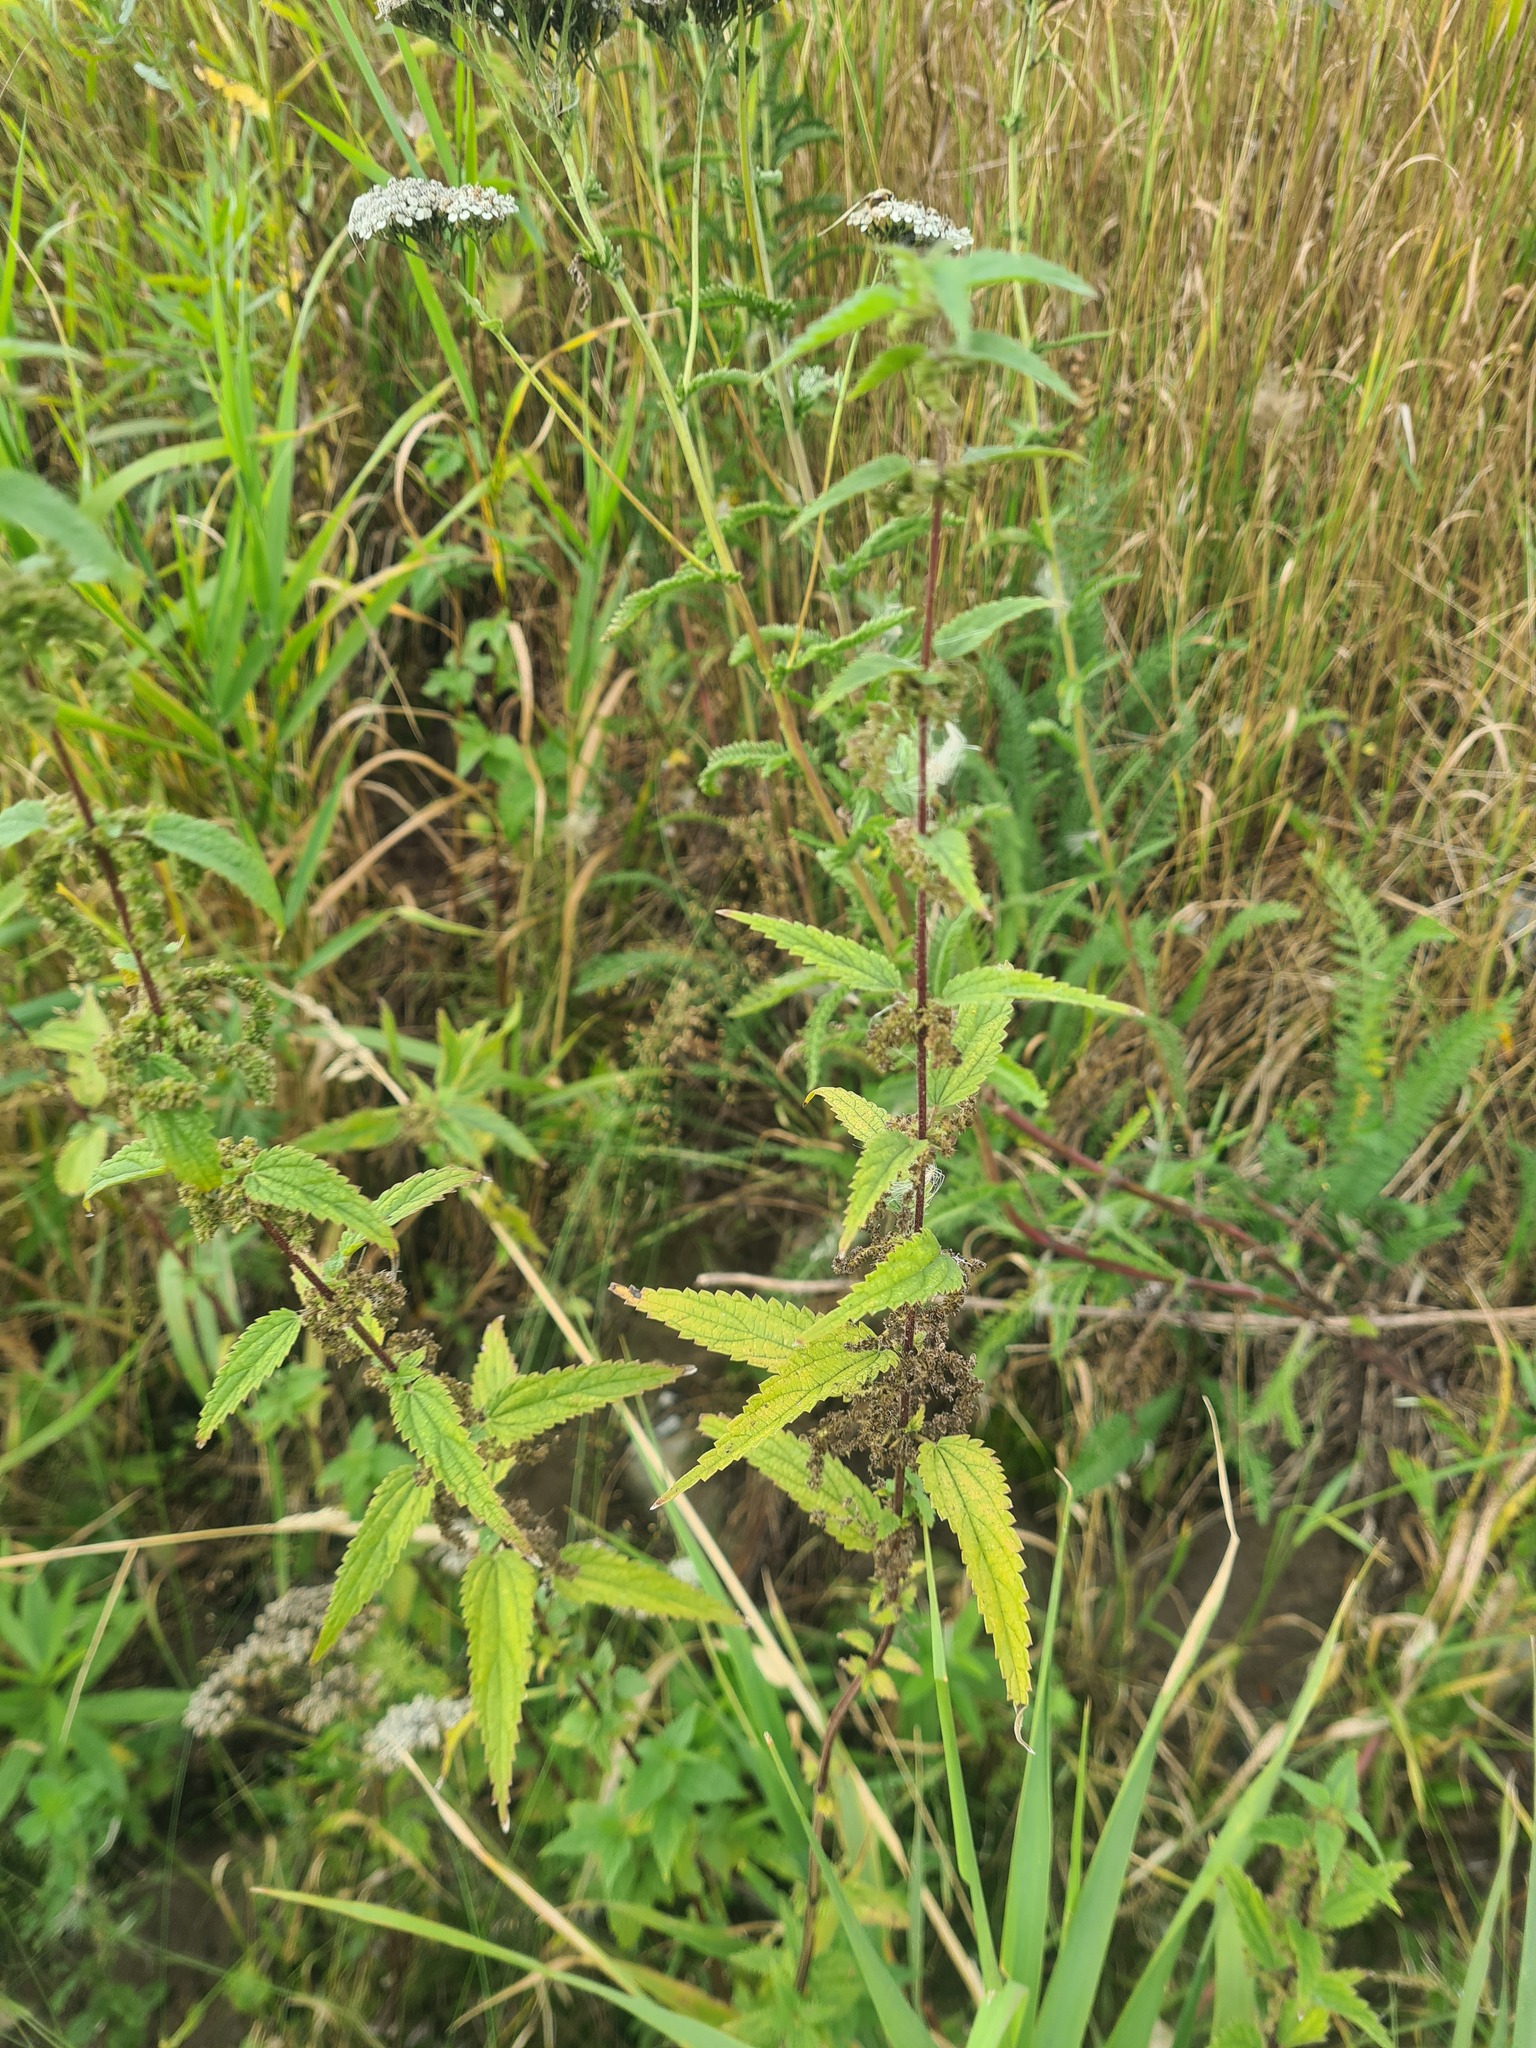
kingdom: Plantae
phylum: Tracheophyta
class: Magnoliopsida
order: Rosales
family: Urticaceae
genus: Urtica
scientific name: Urtica dioica
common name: Common nettle
